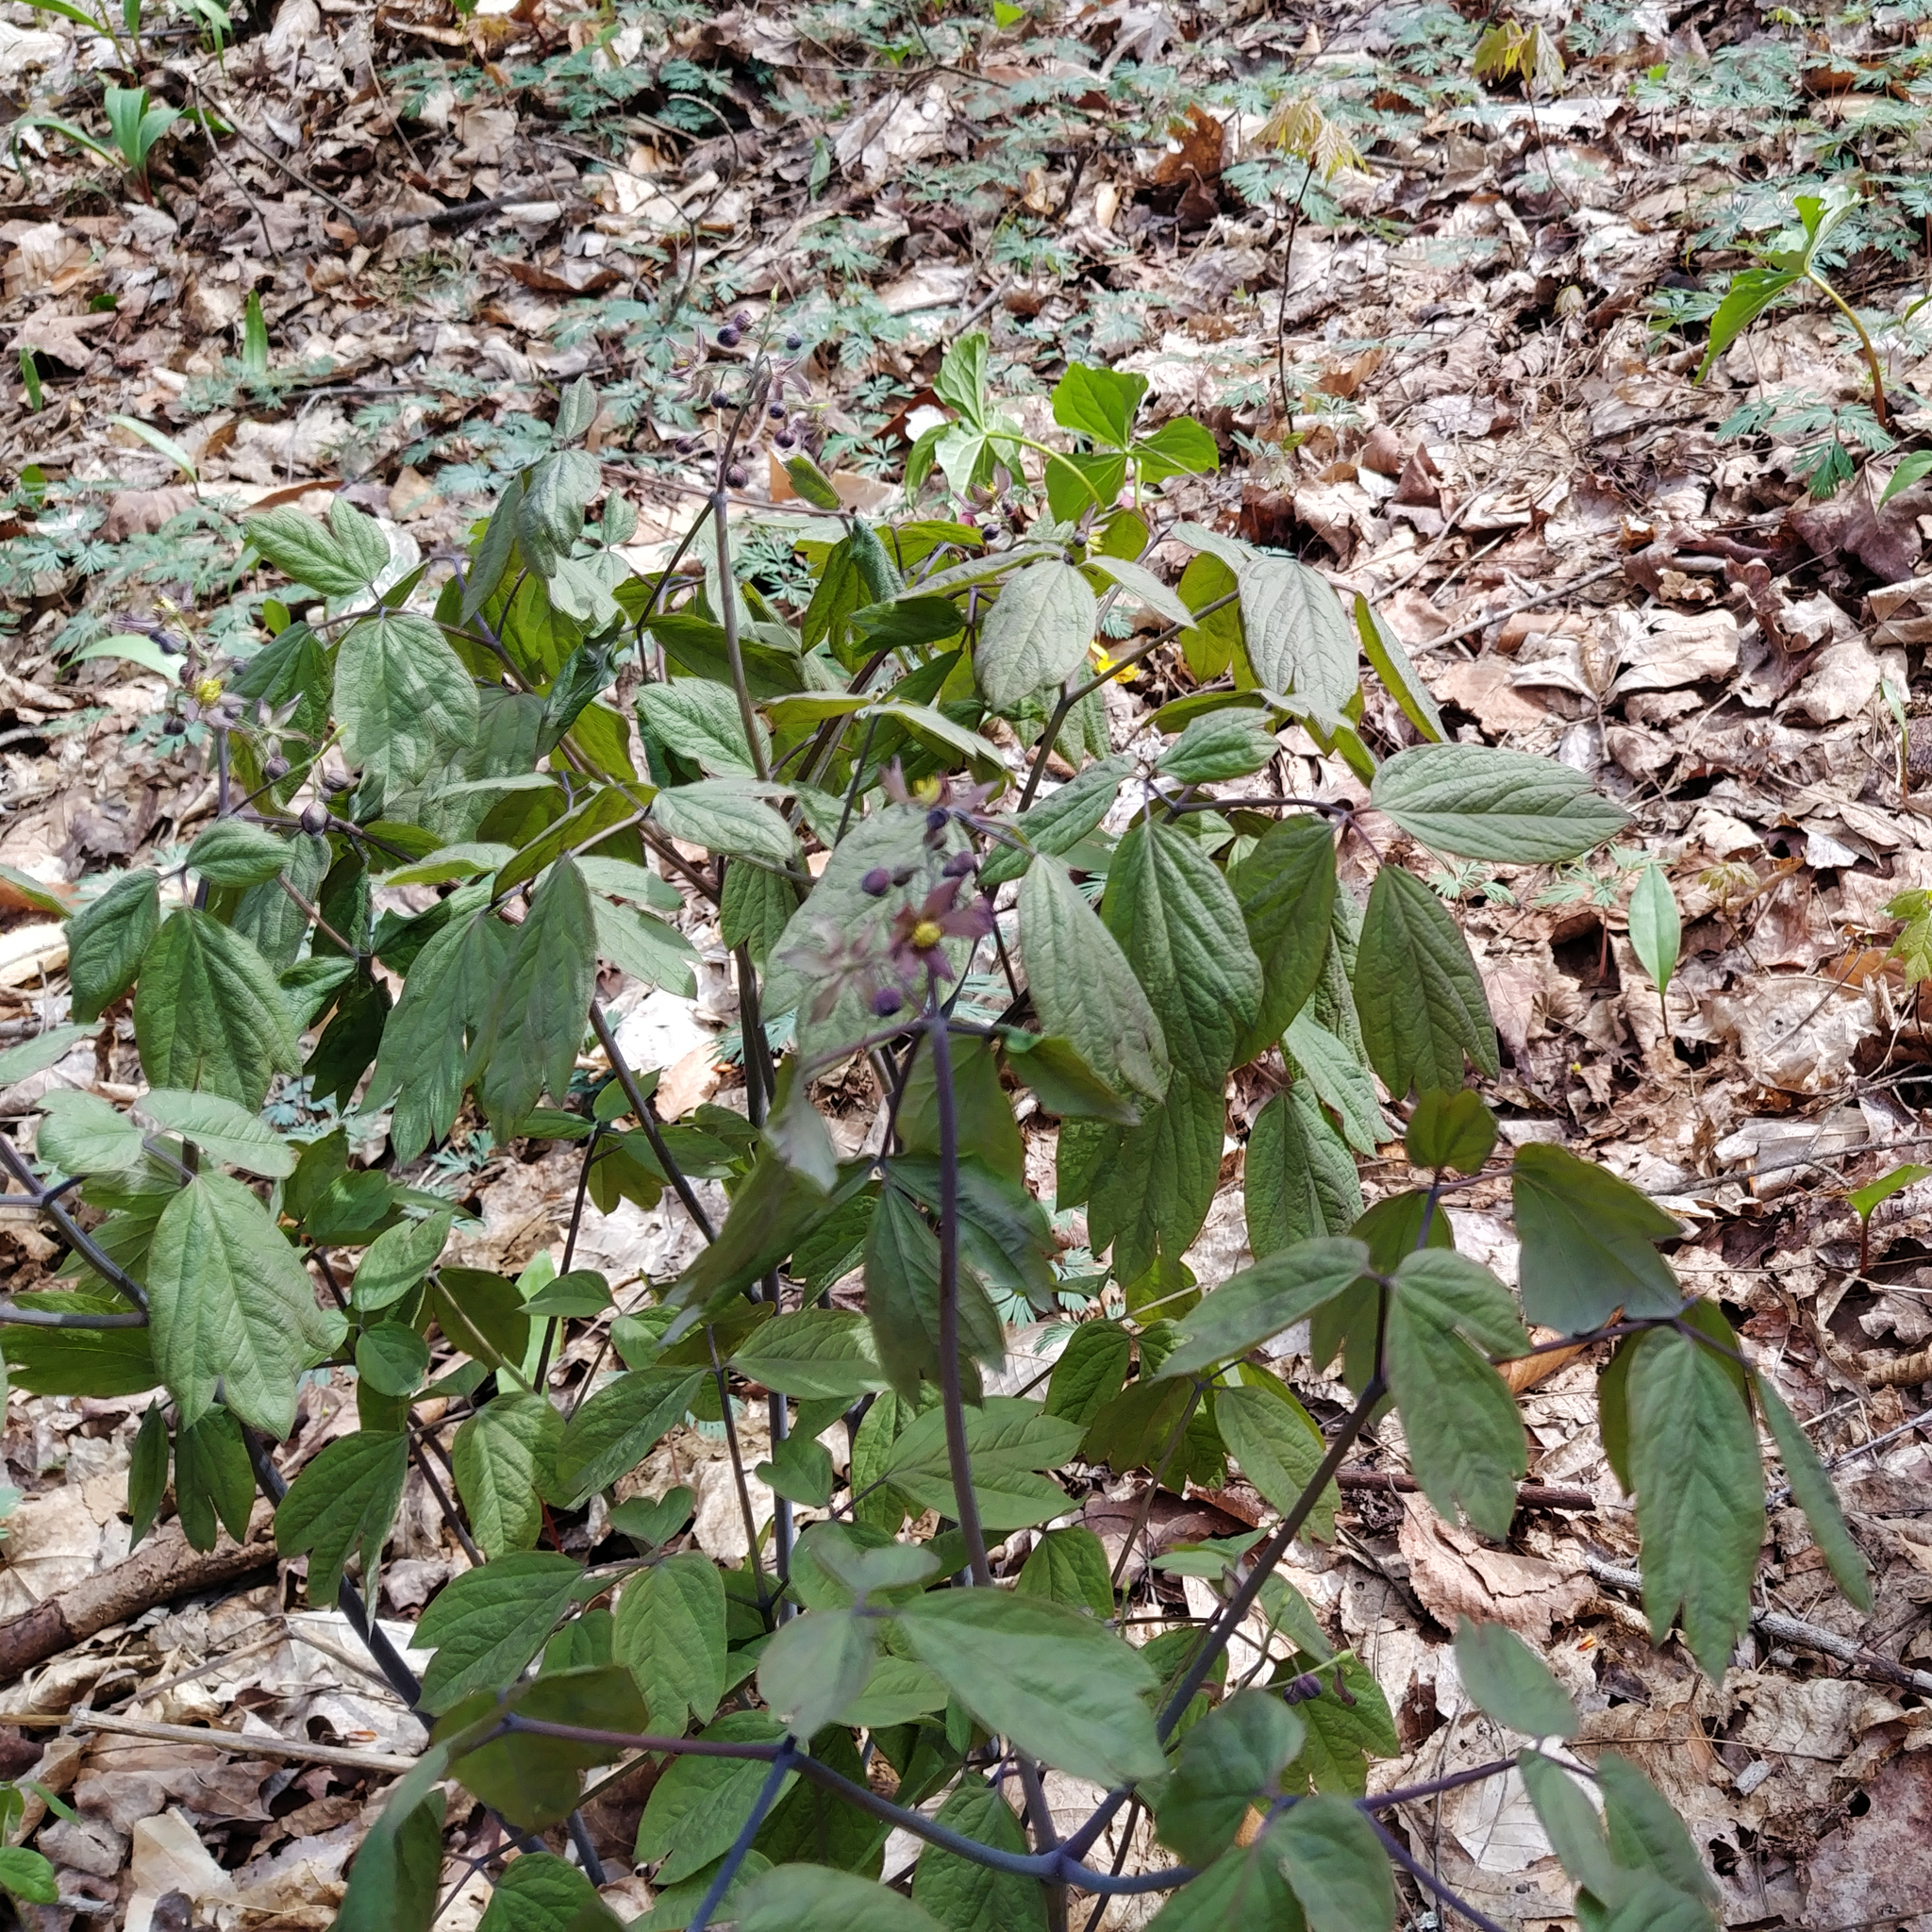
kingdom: Plantae
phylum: Tracheophyta
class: Magnoliopsida
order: Ranunculales
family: Berberidaceae
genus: Caulophyllum
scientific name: Caulophyllum giganteum
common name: Blue cohosh
